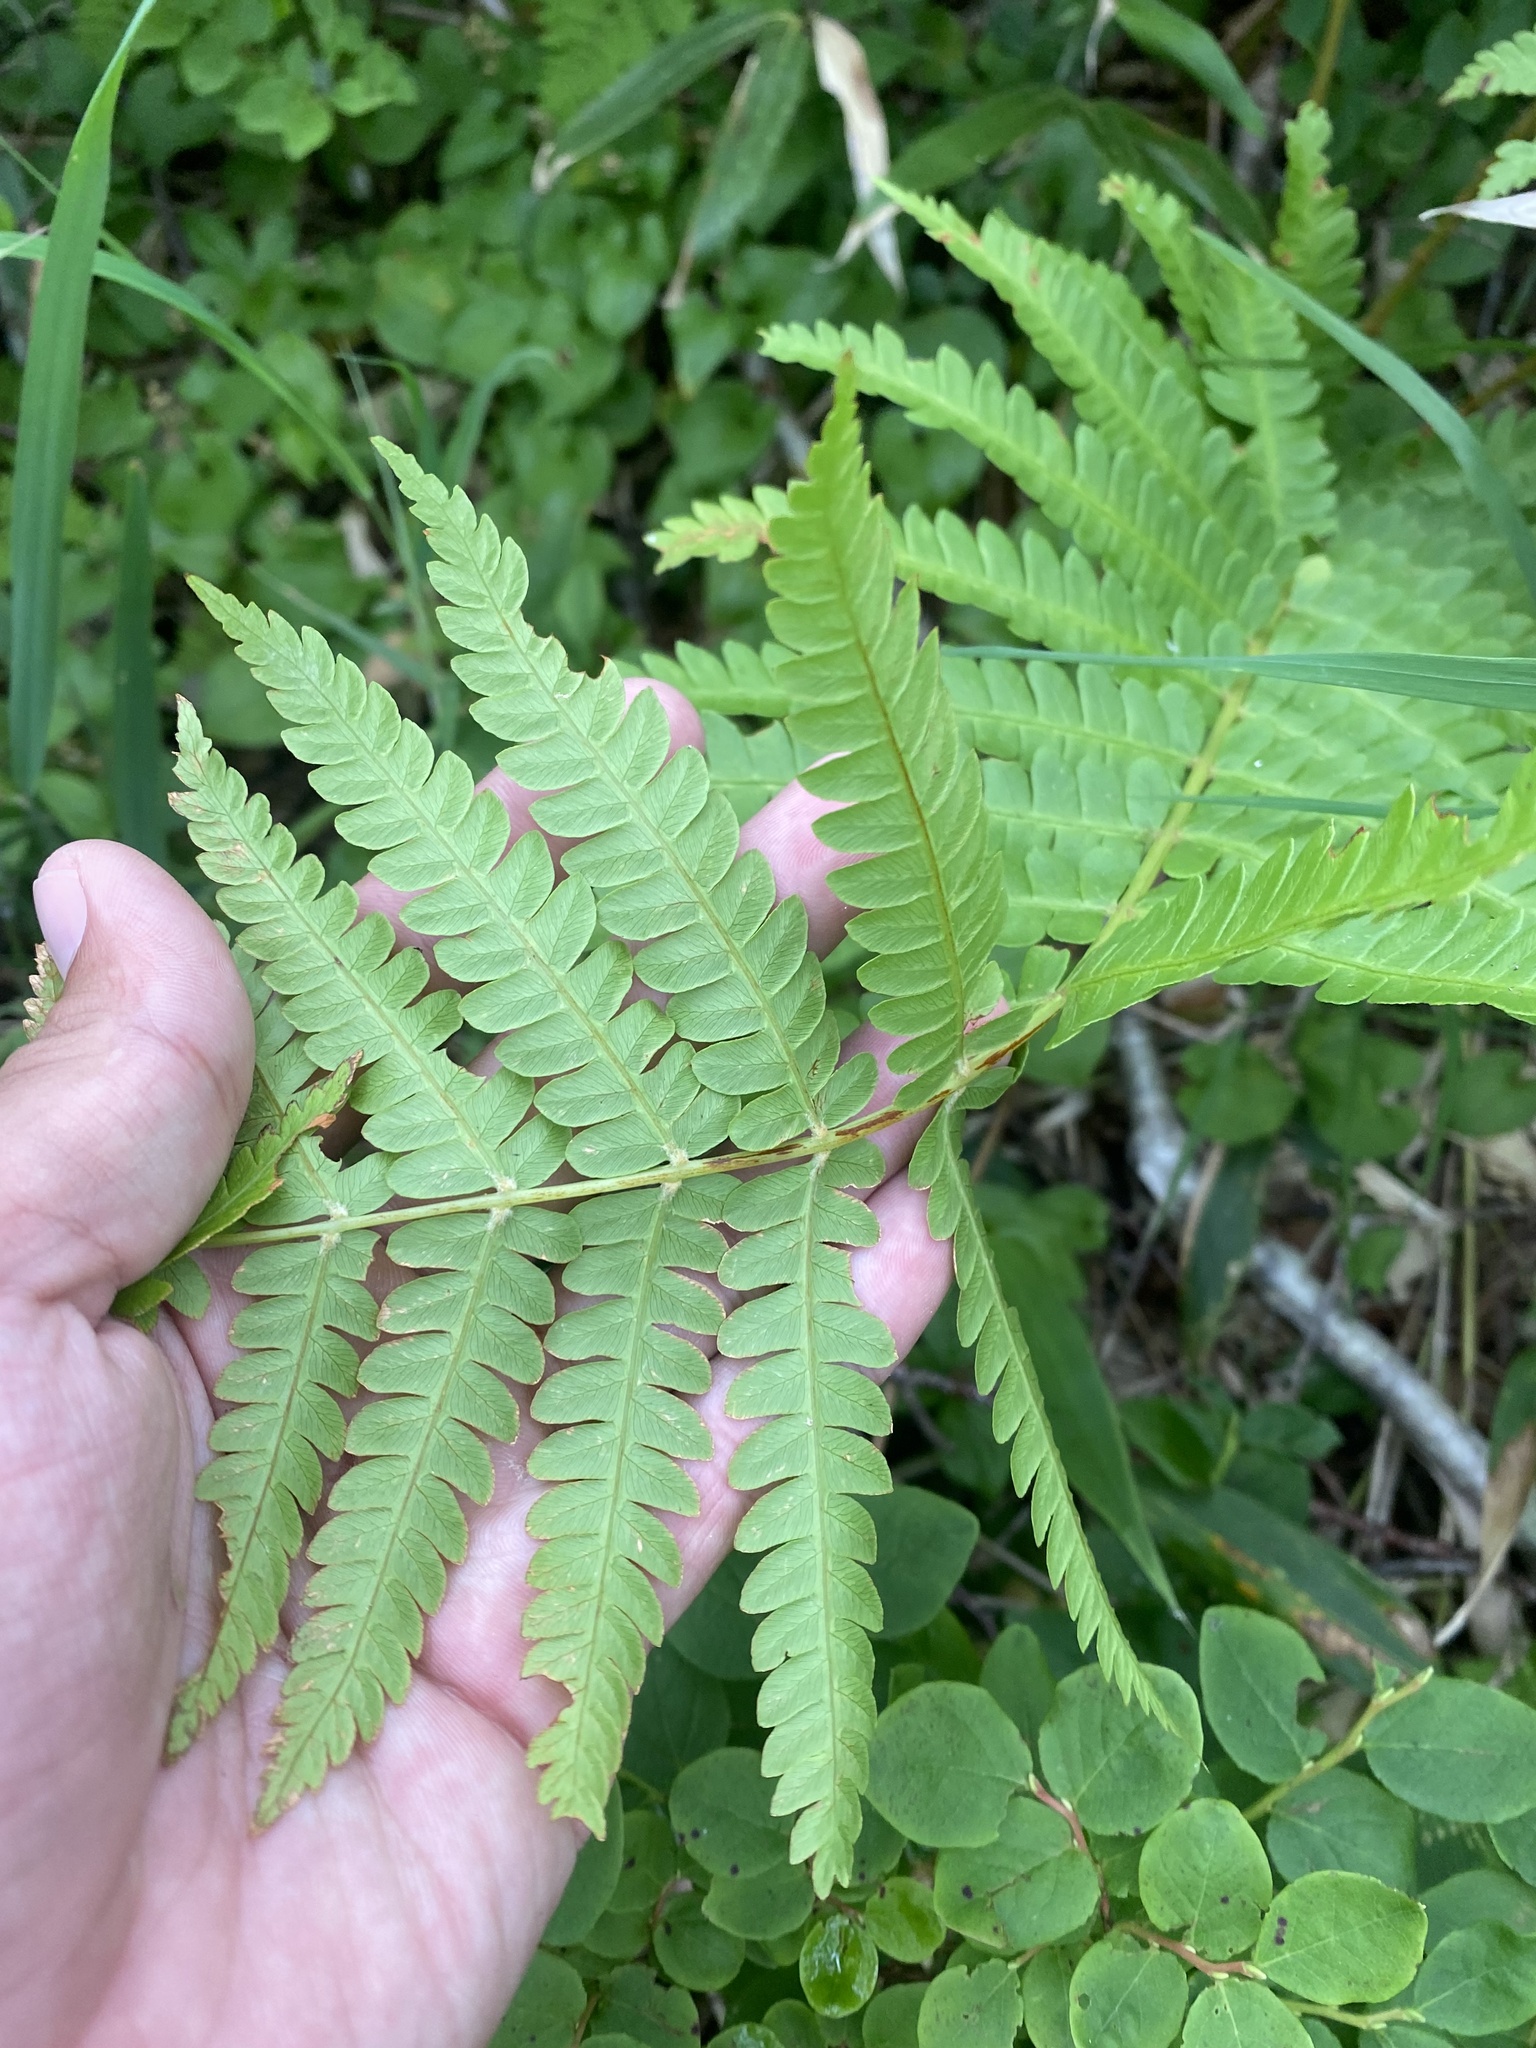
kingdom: Plantae
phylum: Tracheophyta
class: Polypodiopsida
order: Osmundales
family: Osmundaceae
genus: Osmundastrum
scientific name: Osmundastrum cinnamomeum
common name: Cinnamon fern
